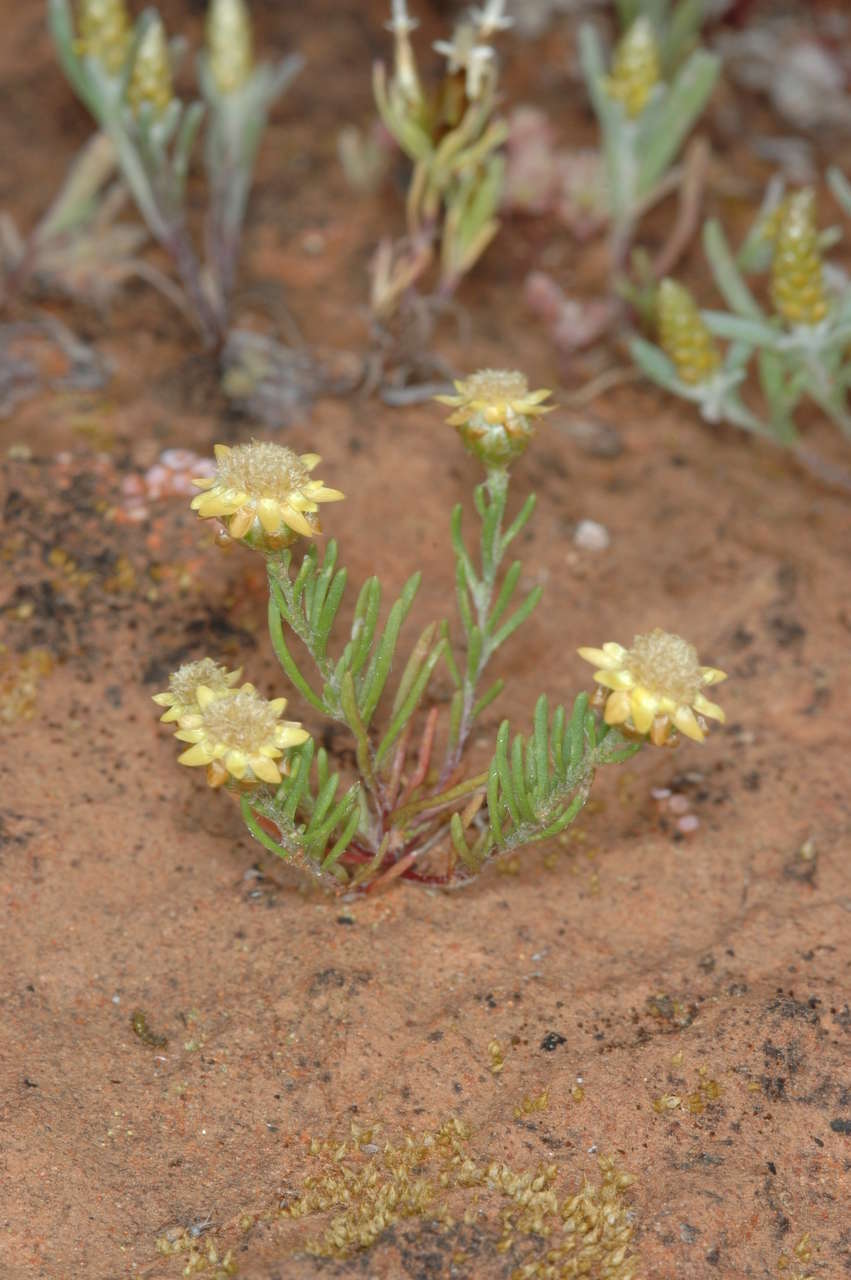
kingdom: Plantae
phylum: Tracheophyta
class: Magnoliopsida
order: Asterales
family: Asteraceae
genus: Hyalosperma
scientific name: Hyalosperma semisterile
